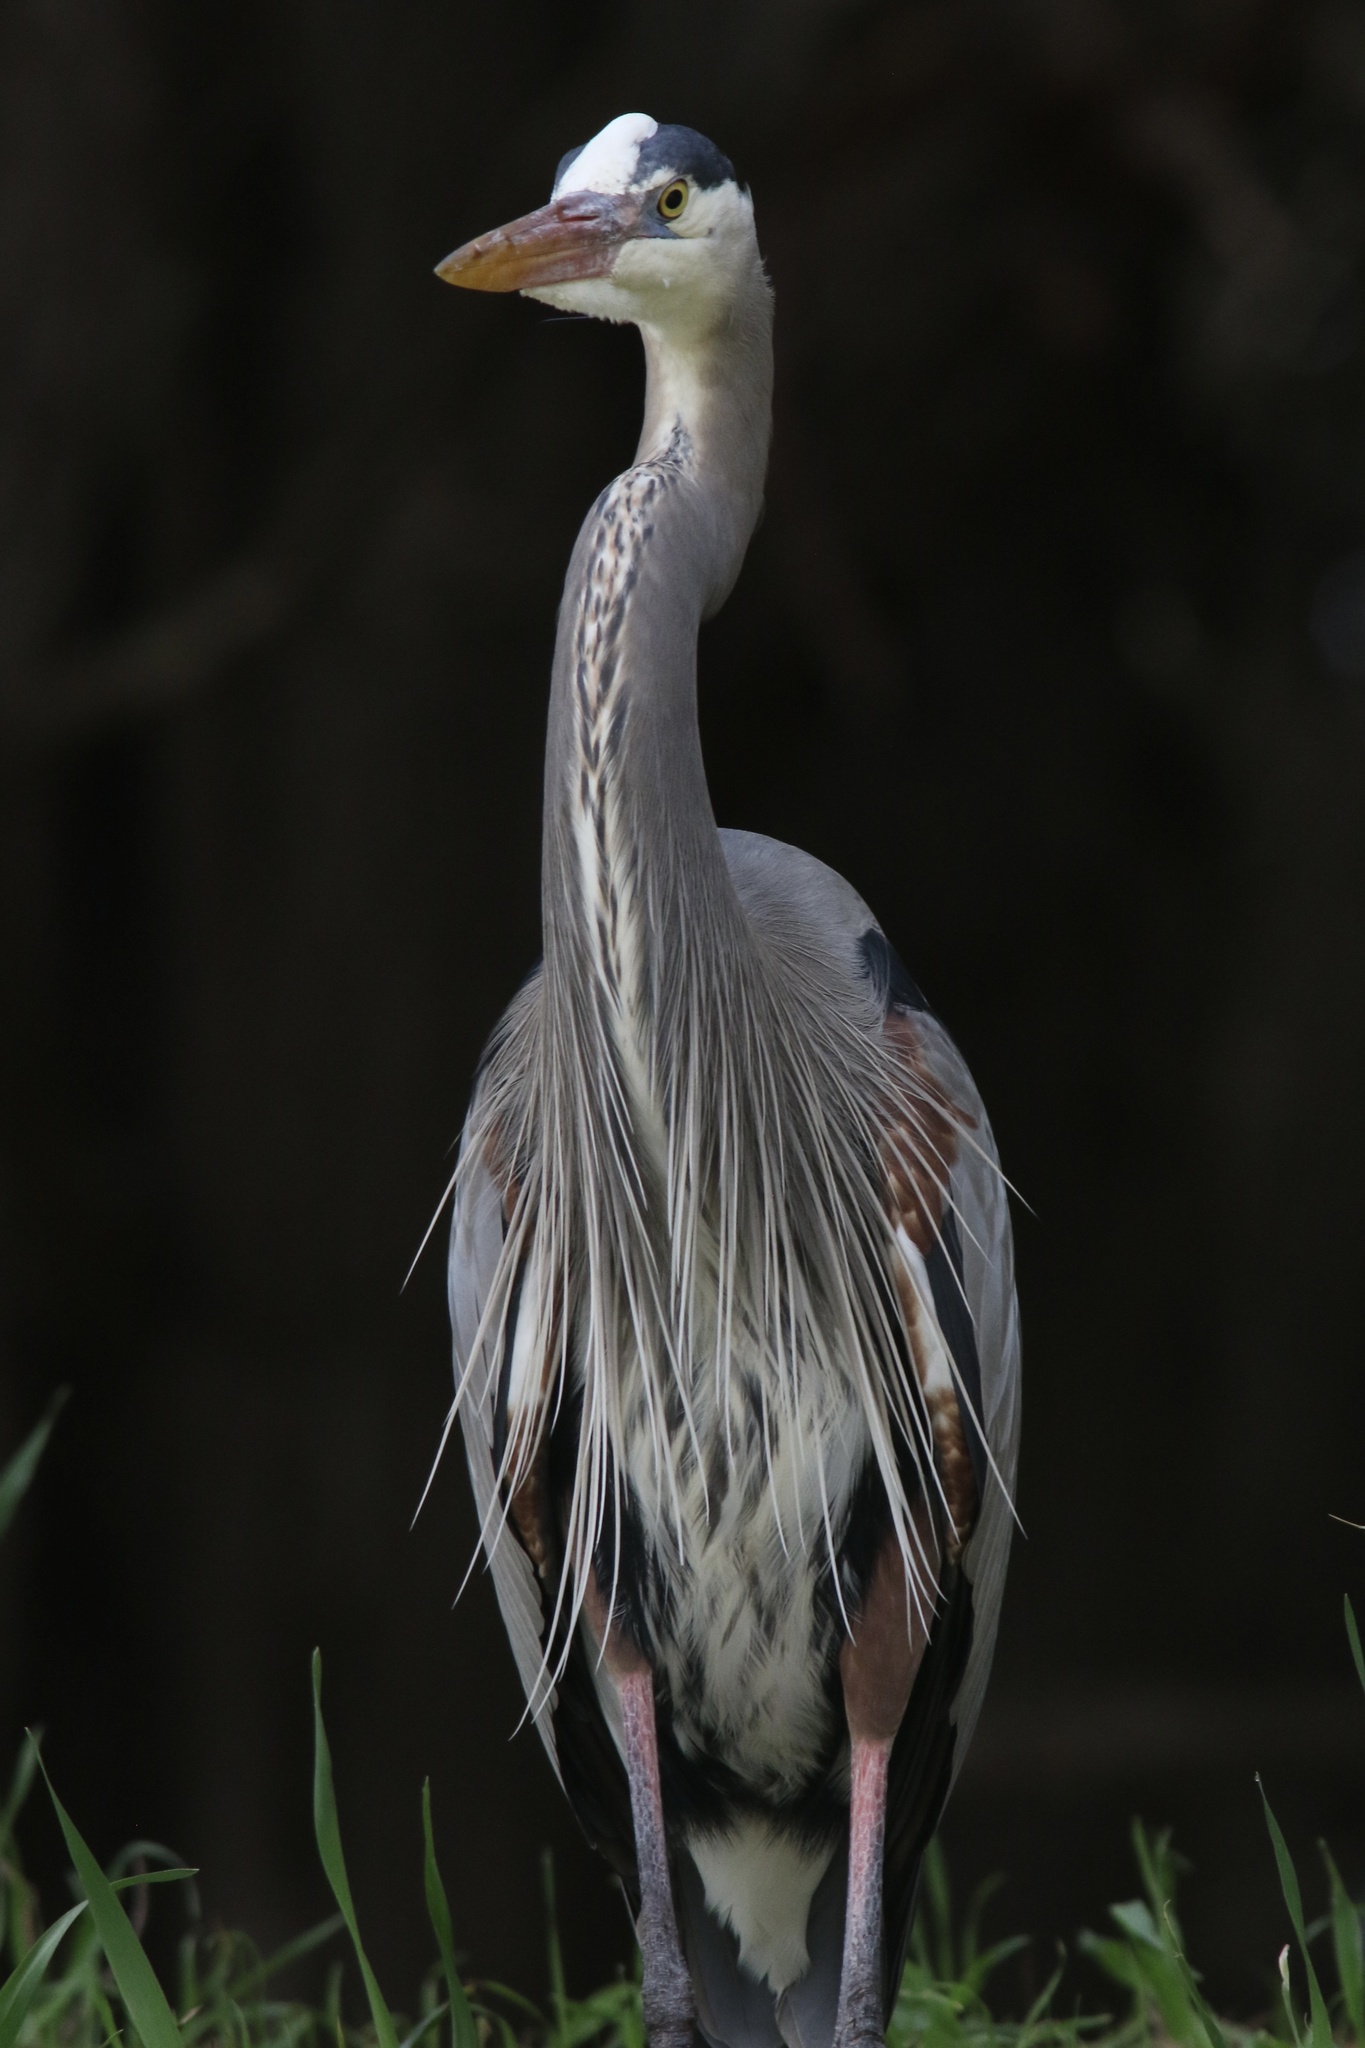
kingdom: Animalia
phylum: Chordata
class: Aves
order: Pelecaniformes
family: Ardeidae
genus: Ardea
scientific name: Ardea herodias
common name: Great blue heron
